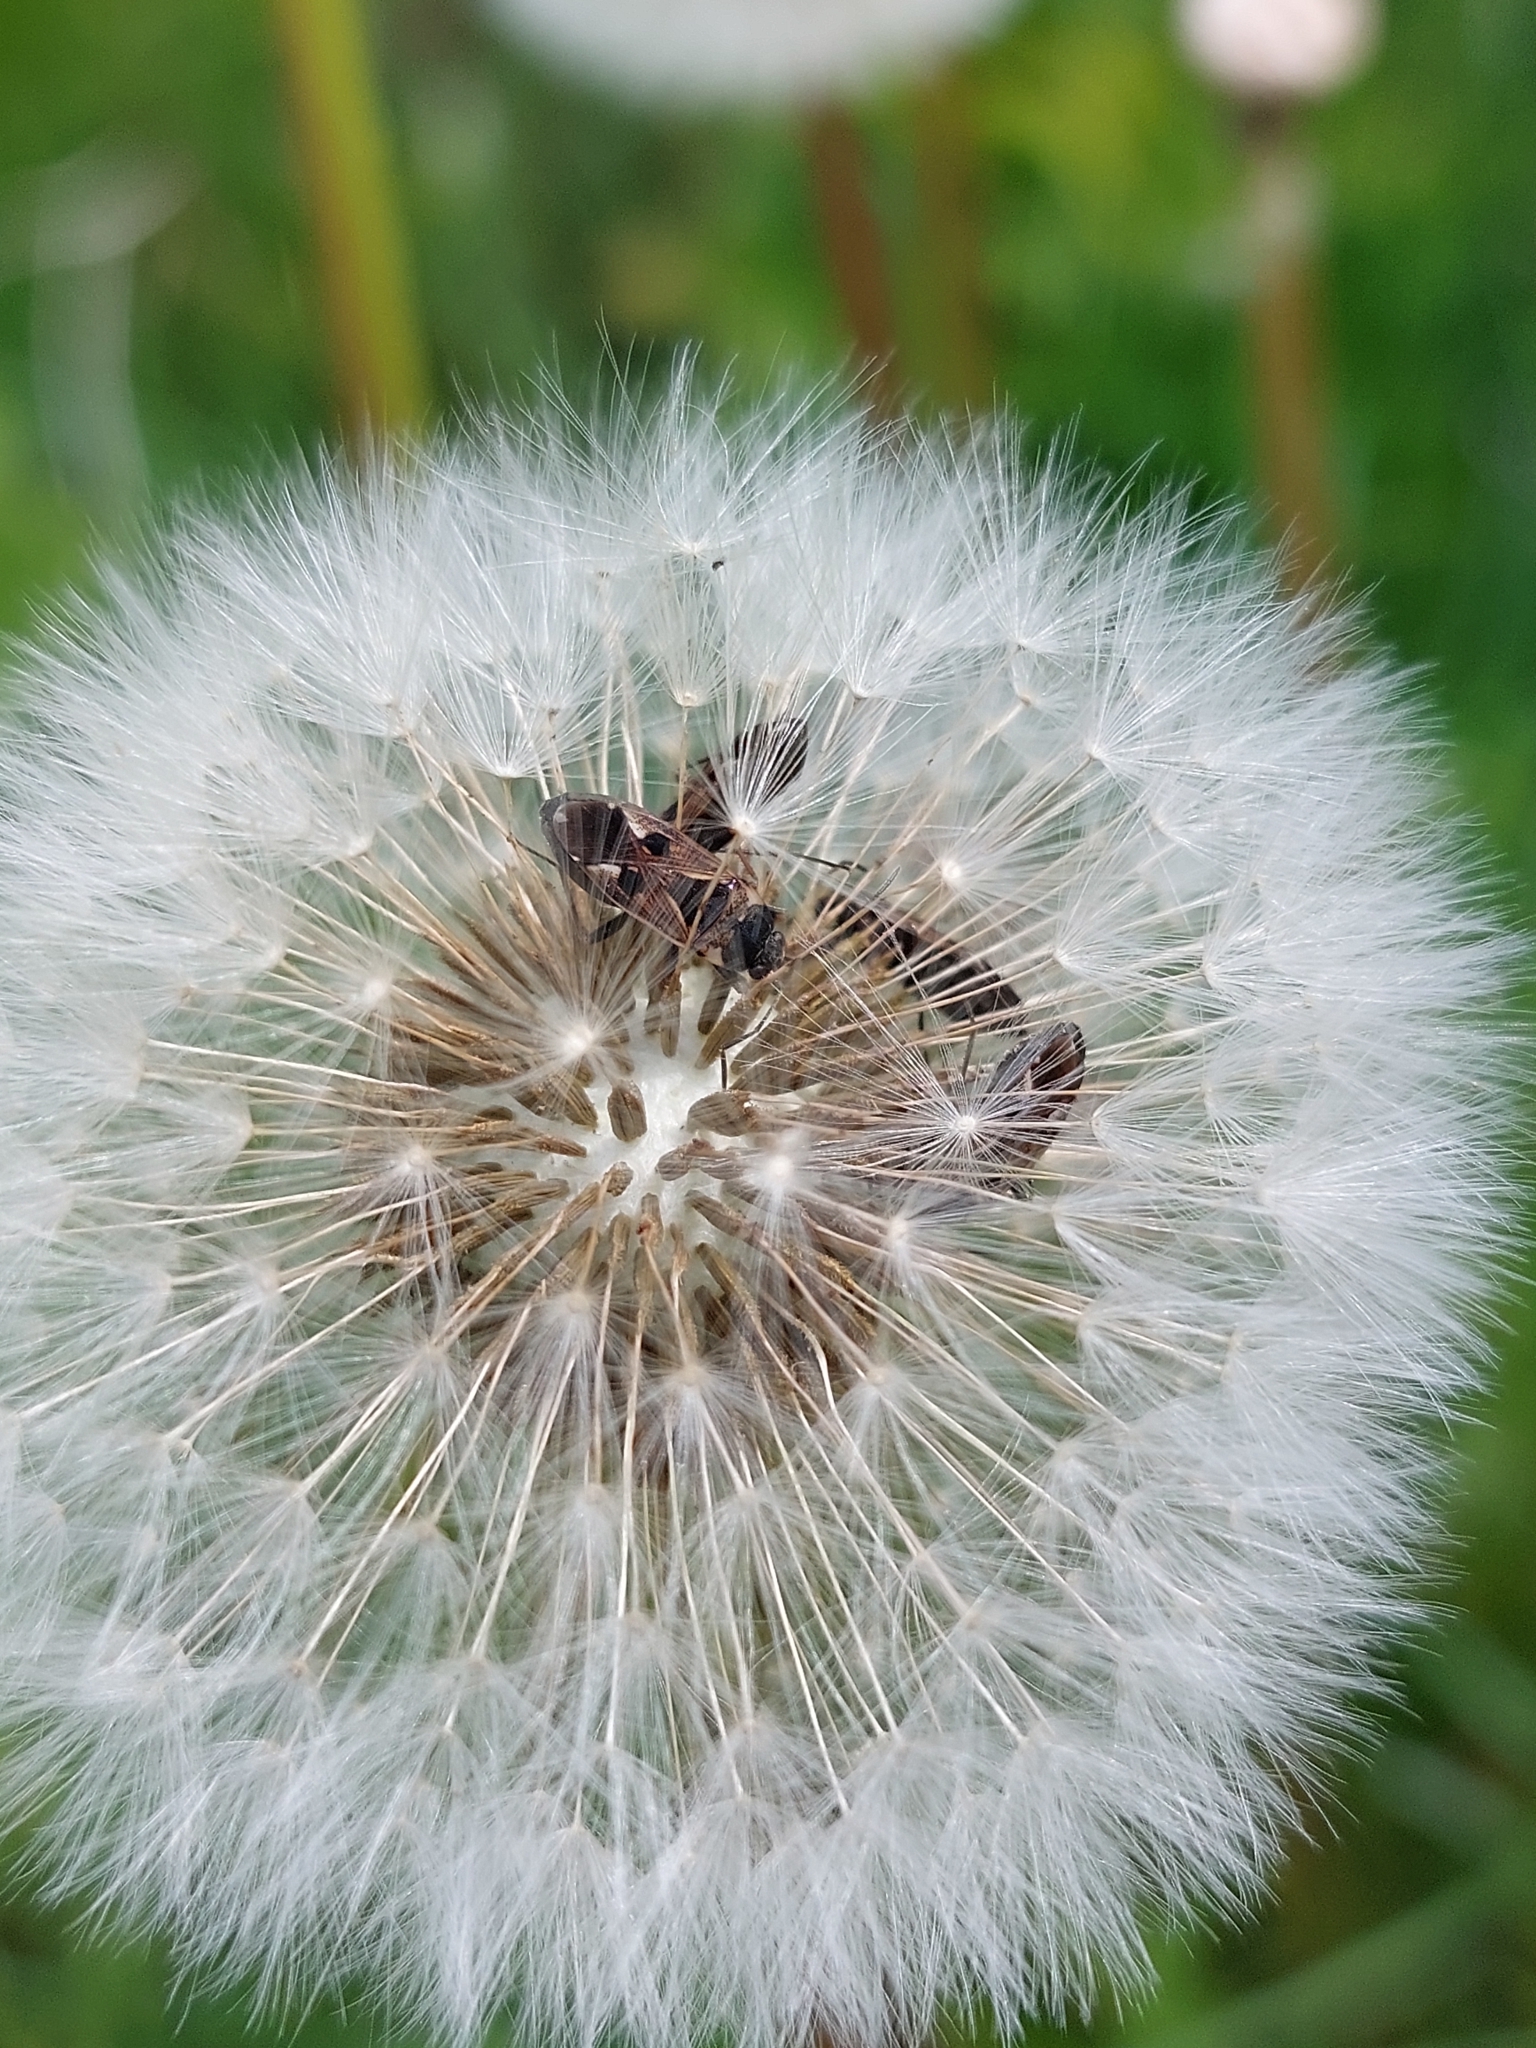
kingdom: Animalia
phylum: Arthropoda
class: Insecta
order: Hemiptera
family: Rhyparochromidae
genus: Rhyparochromus
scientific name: Rhyparochromus vulgaris
